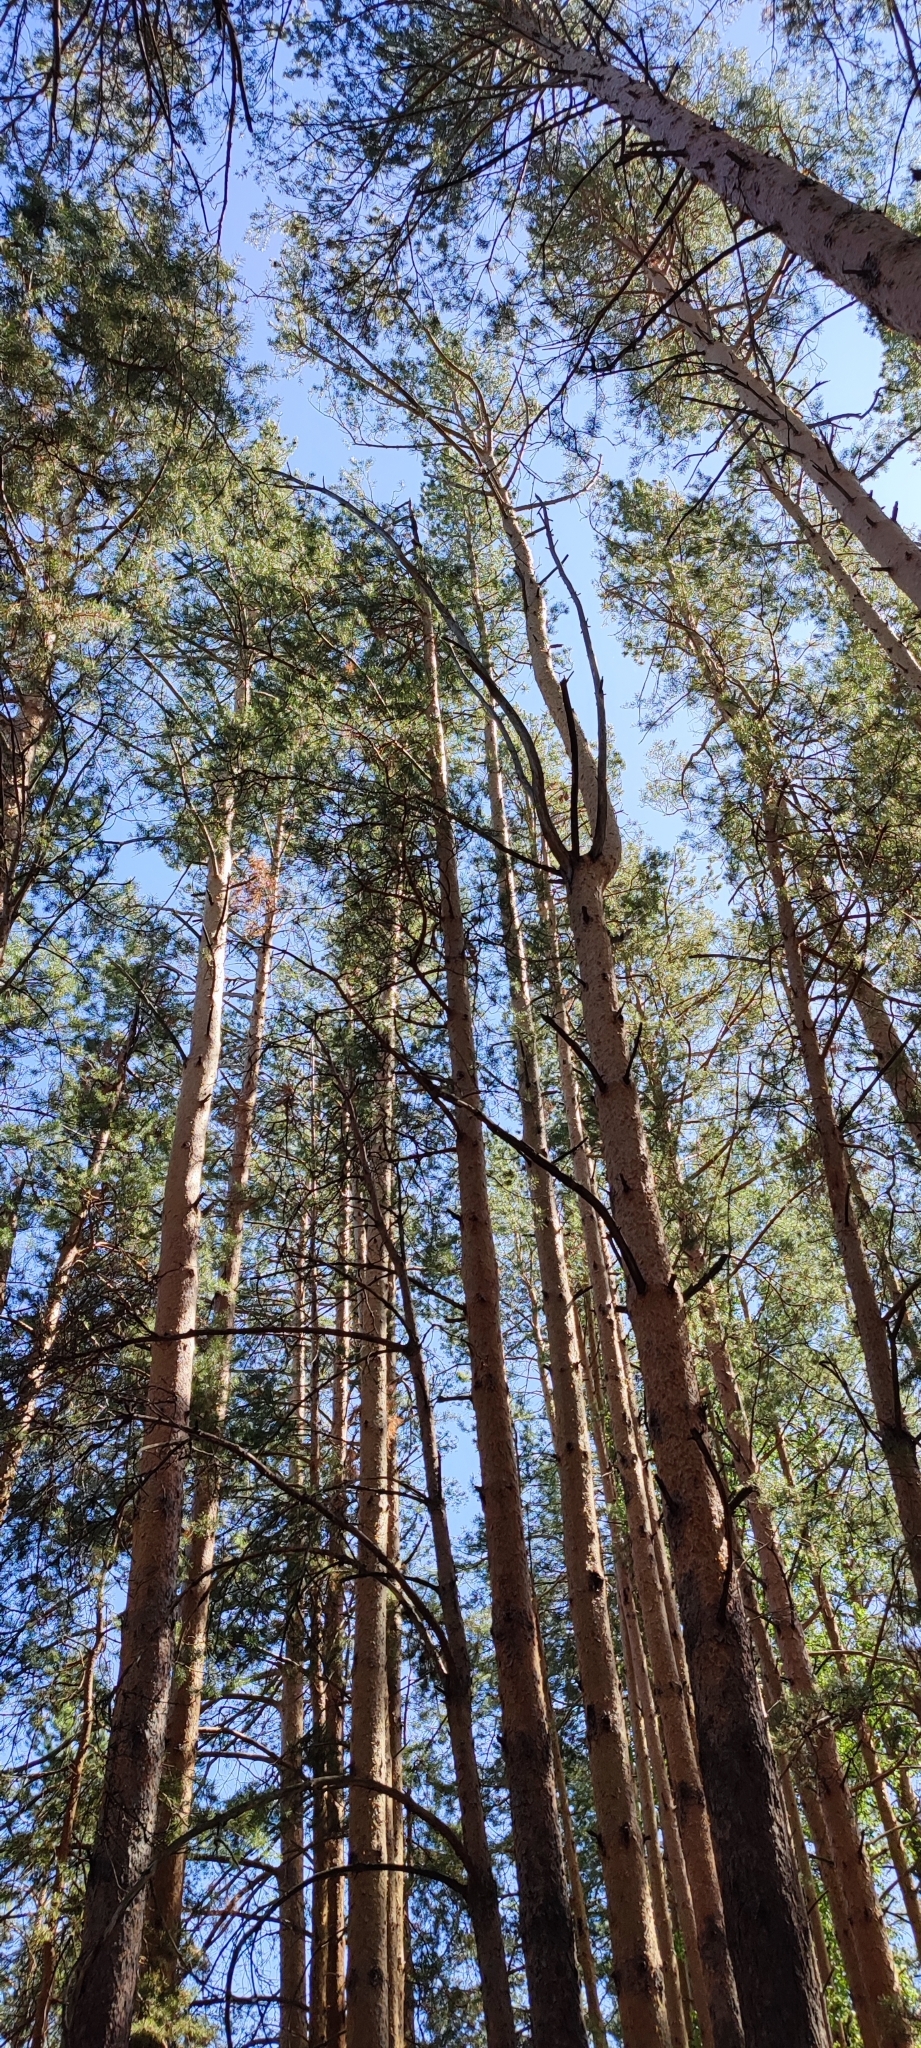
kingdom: Plantae
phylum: Tracheophyta
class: Pinopsida
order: Pinales
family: Pinaceae
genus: Pinus
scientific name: Pinus sylvestris
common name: Scots pine
